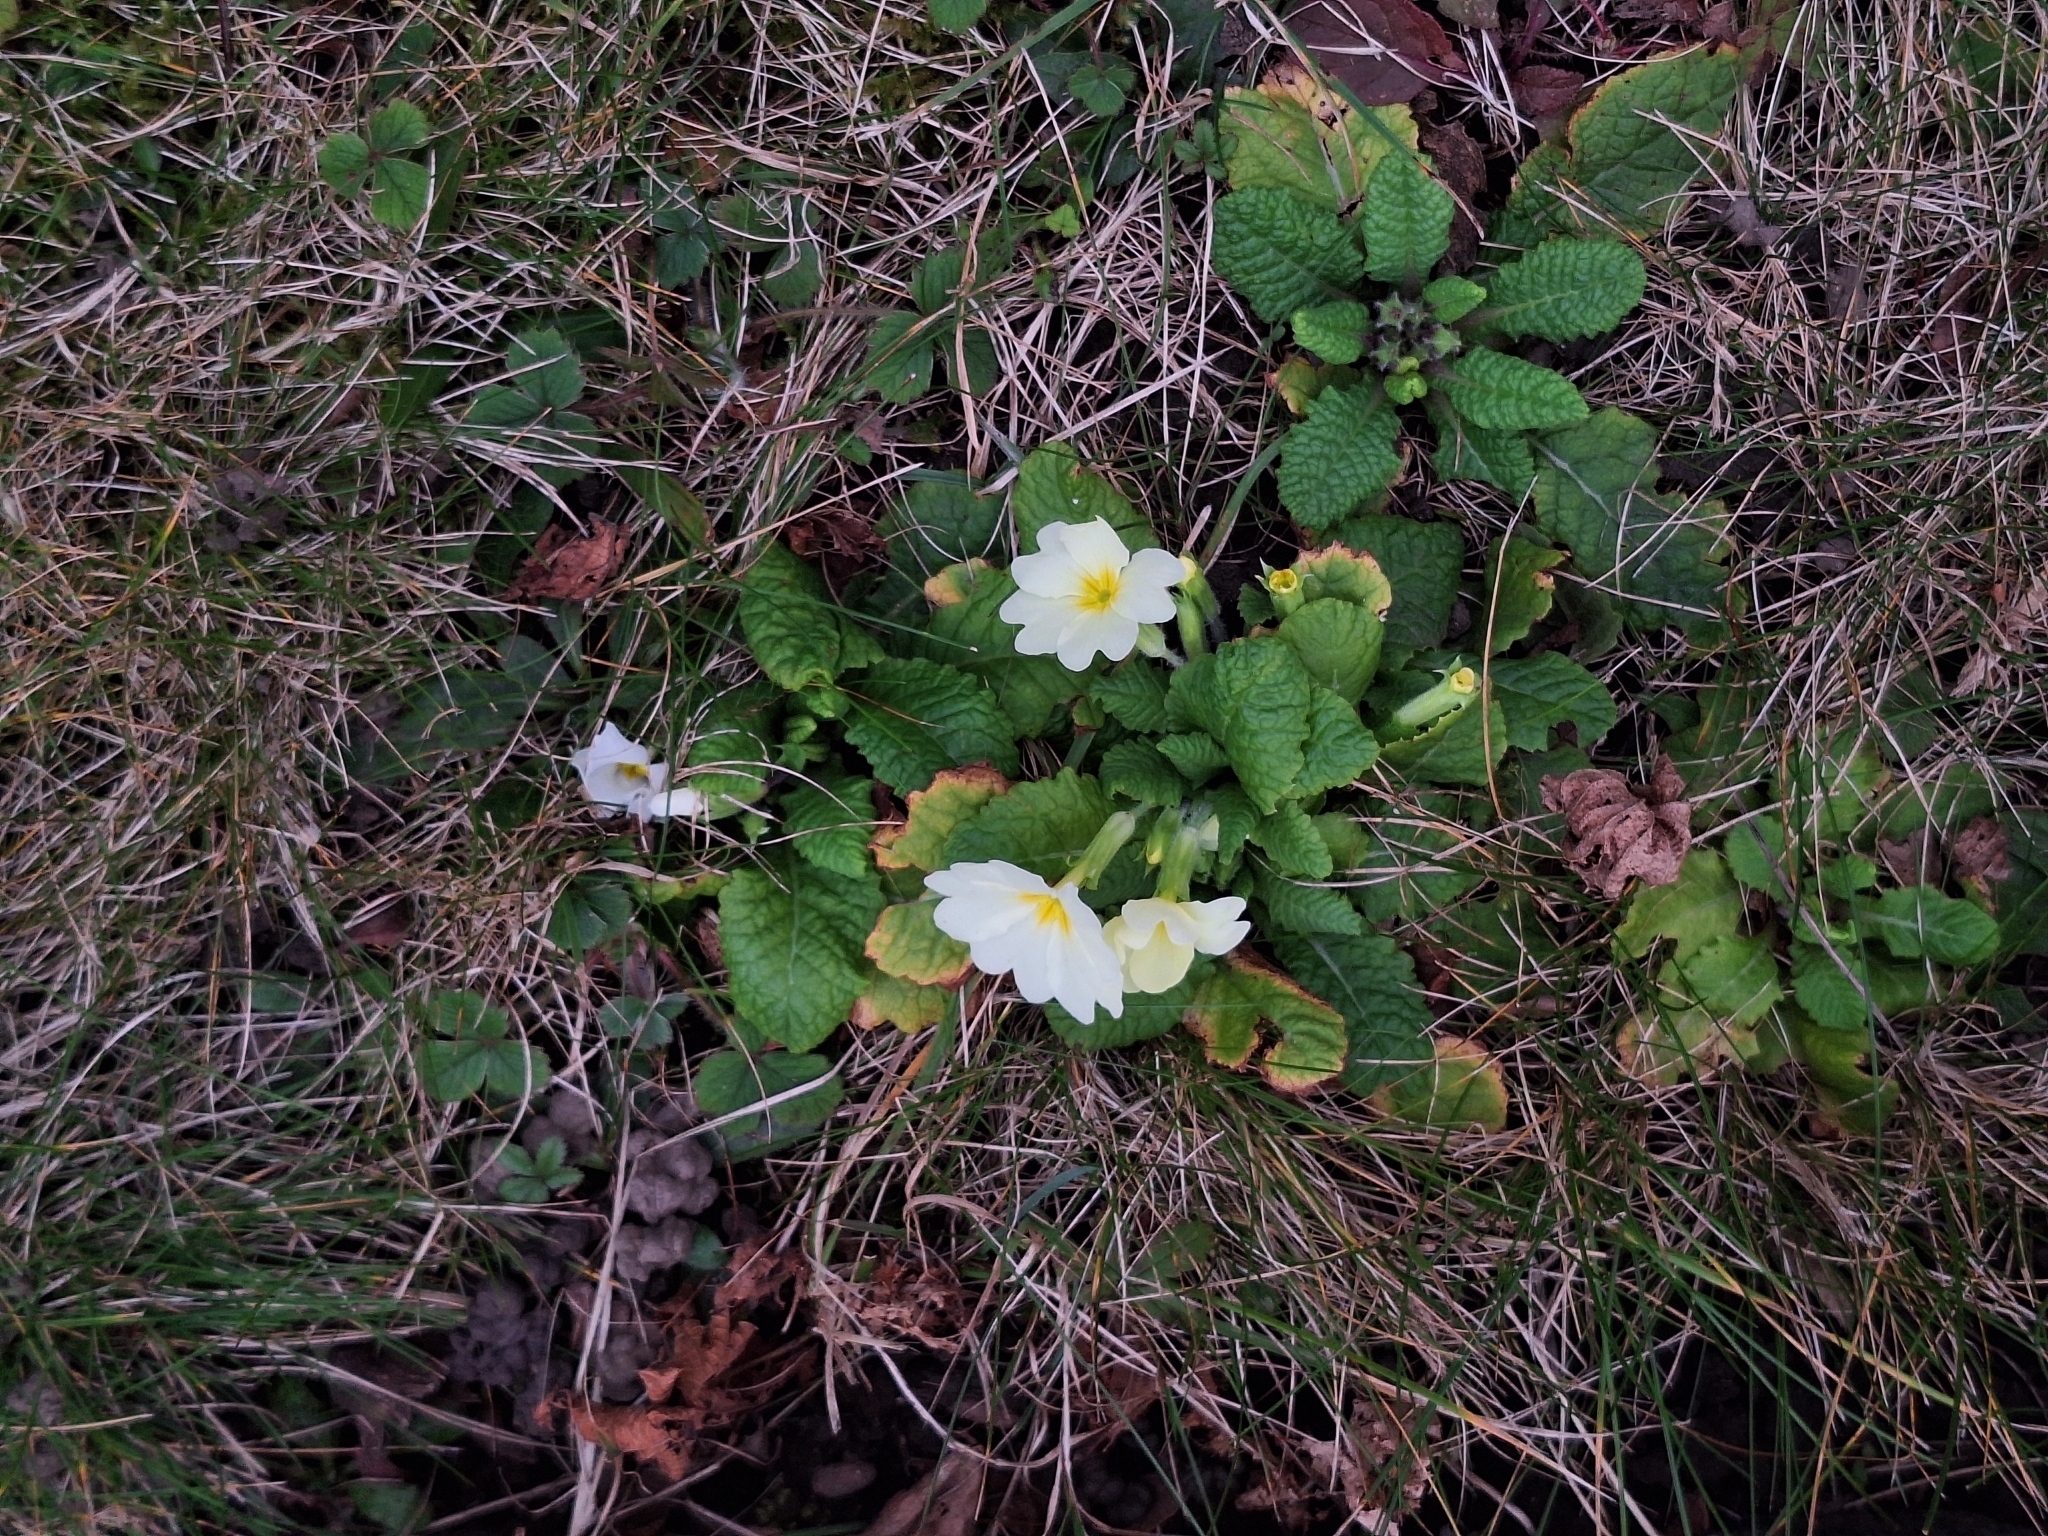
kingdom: Plantae
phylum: Tracheophyta
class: Magnoliopsida
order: Ericales
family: Primulaceae
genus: Primula
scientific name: Primula vulgaris
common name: Primrose
